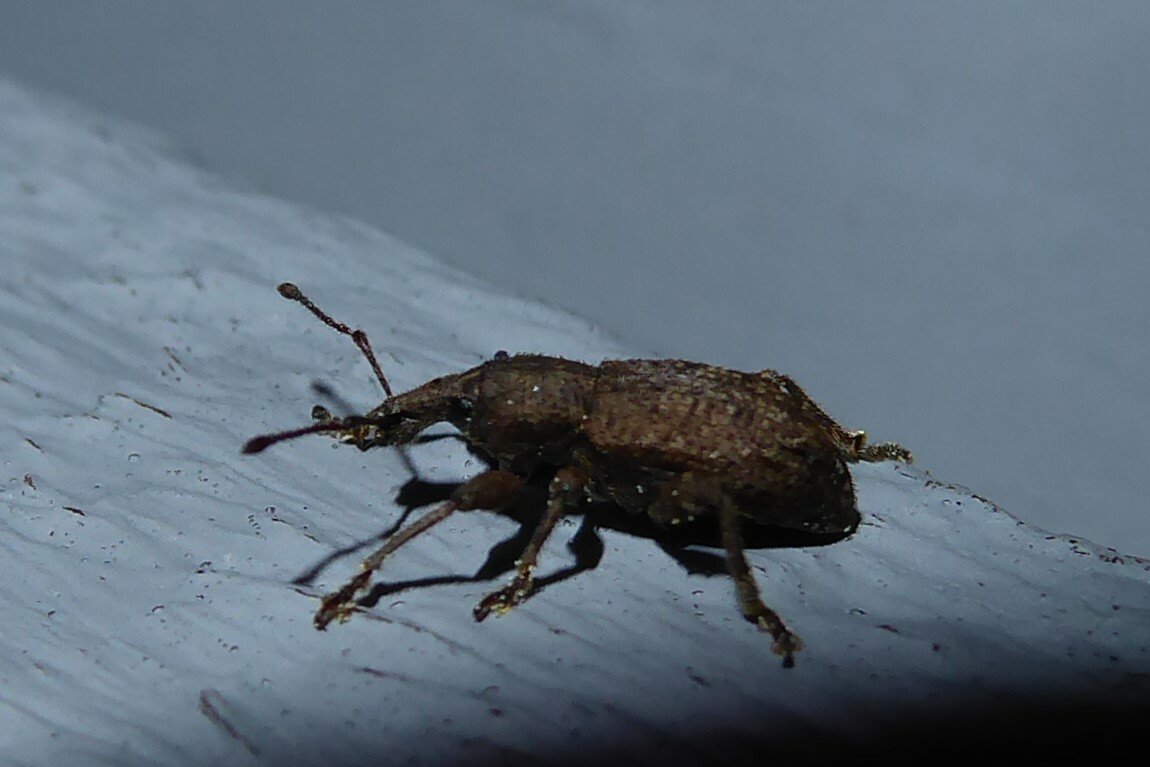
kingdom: Animalia
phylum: Arthropoda
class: Insecta
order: Coleoptera
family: Curculionidae
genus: Chalepistes
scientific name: Chalepistes rubidus
